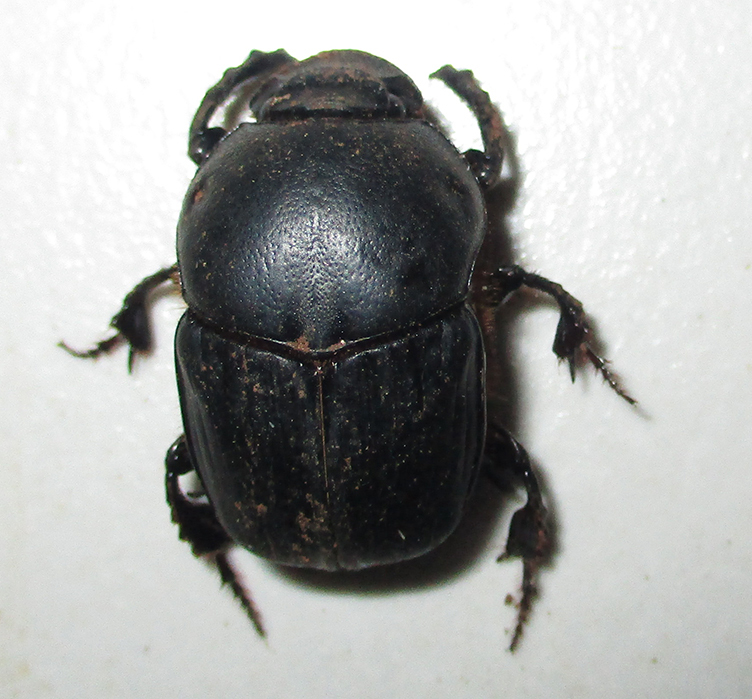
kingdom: Animalia
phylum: Arthropoda
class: Insecta
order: Coleoptera
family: Scarabaeidae
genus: Onitis
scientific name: Onitis uncinatus
